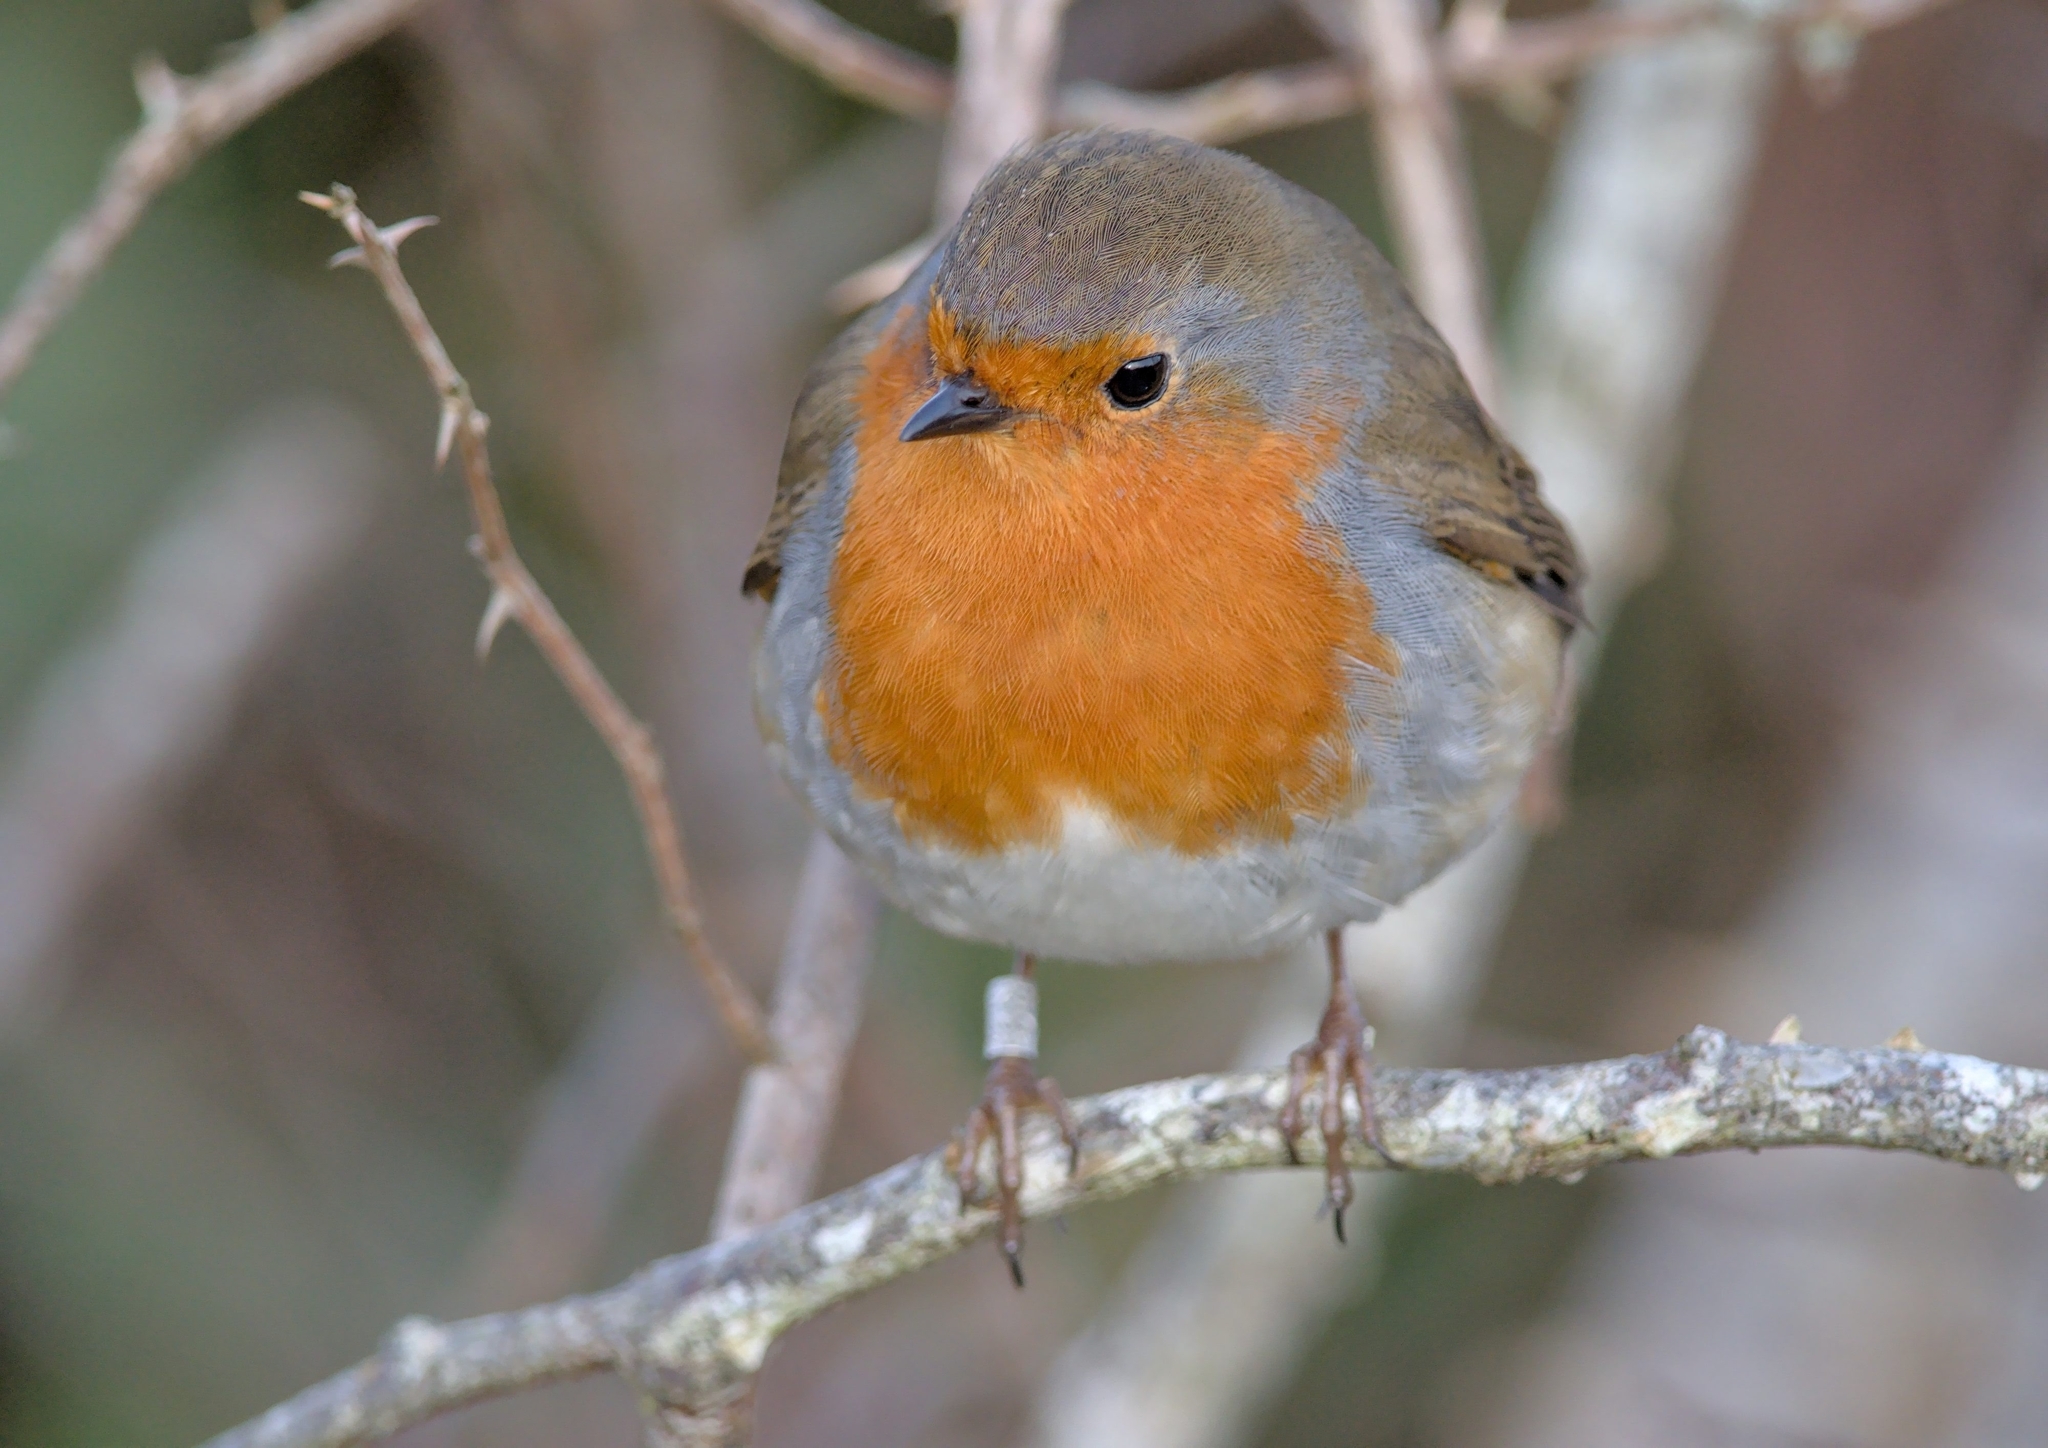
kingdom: Animalia
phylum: Chordata
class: Aves
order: Passeriformes
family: Muscicapidae
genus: Erithacus
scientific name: Erithacus rubecula
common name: European robin
